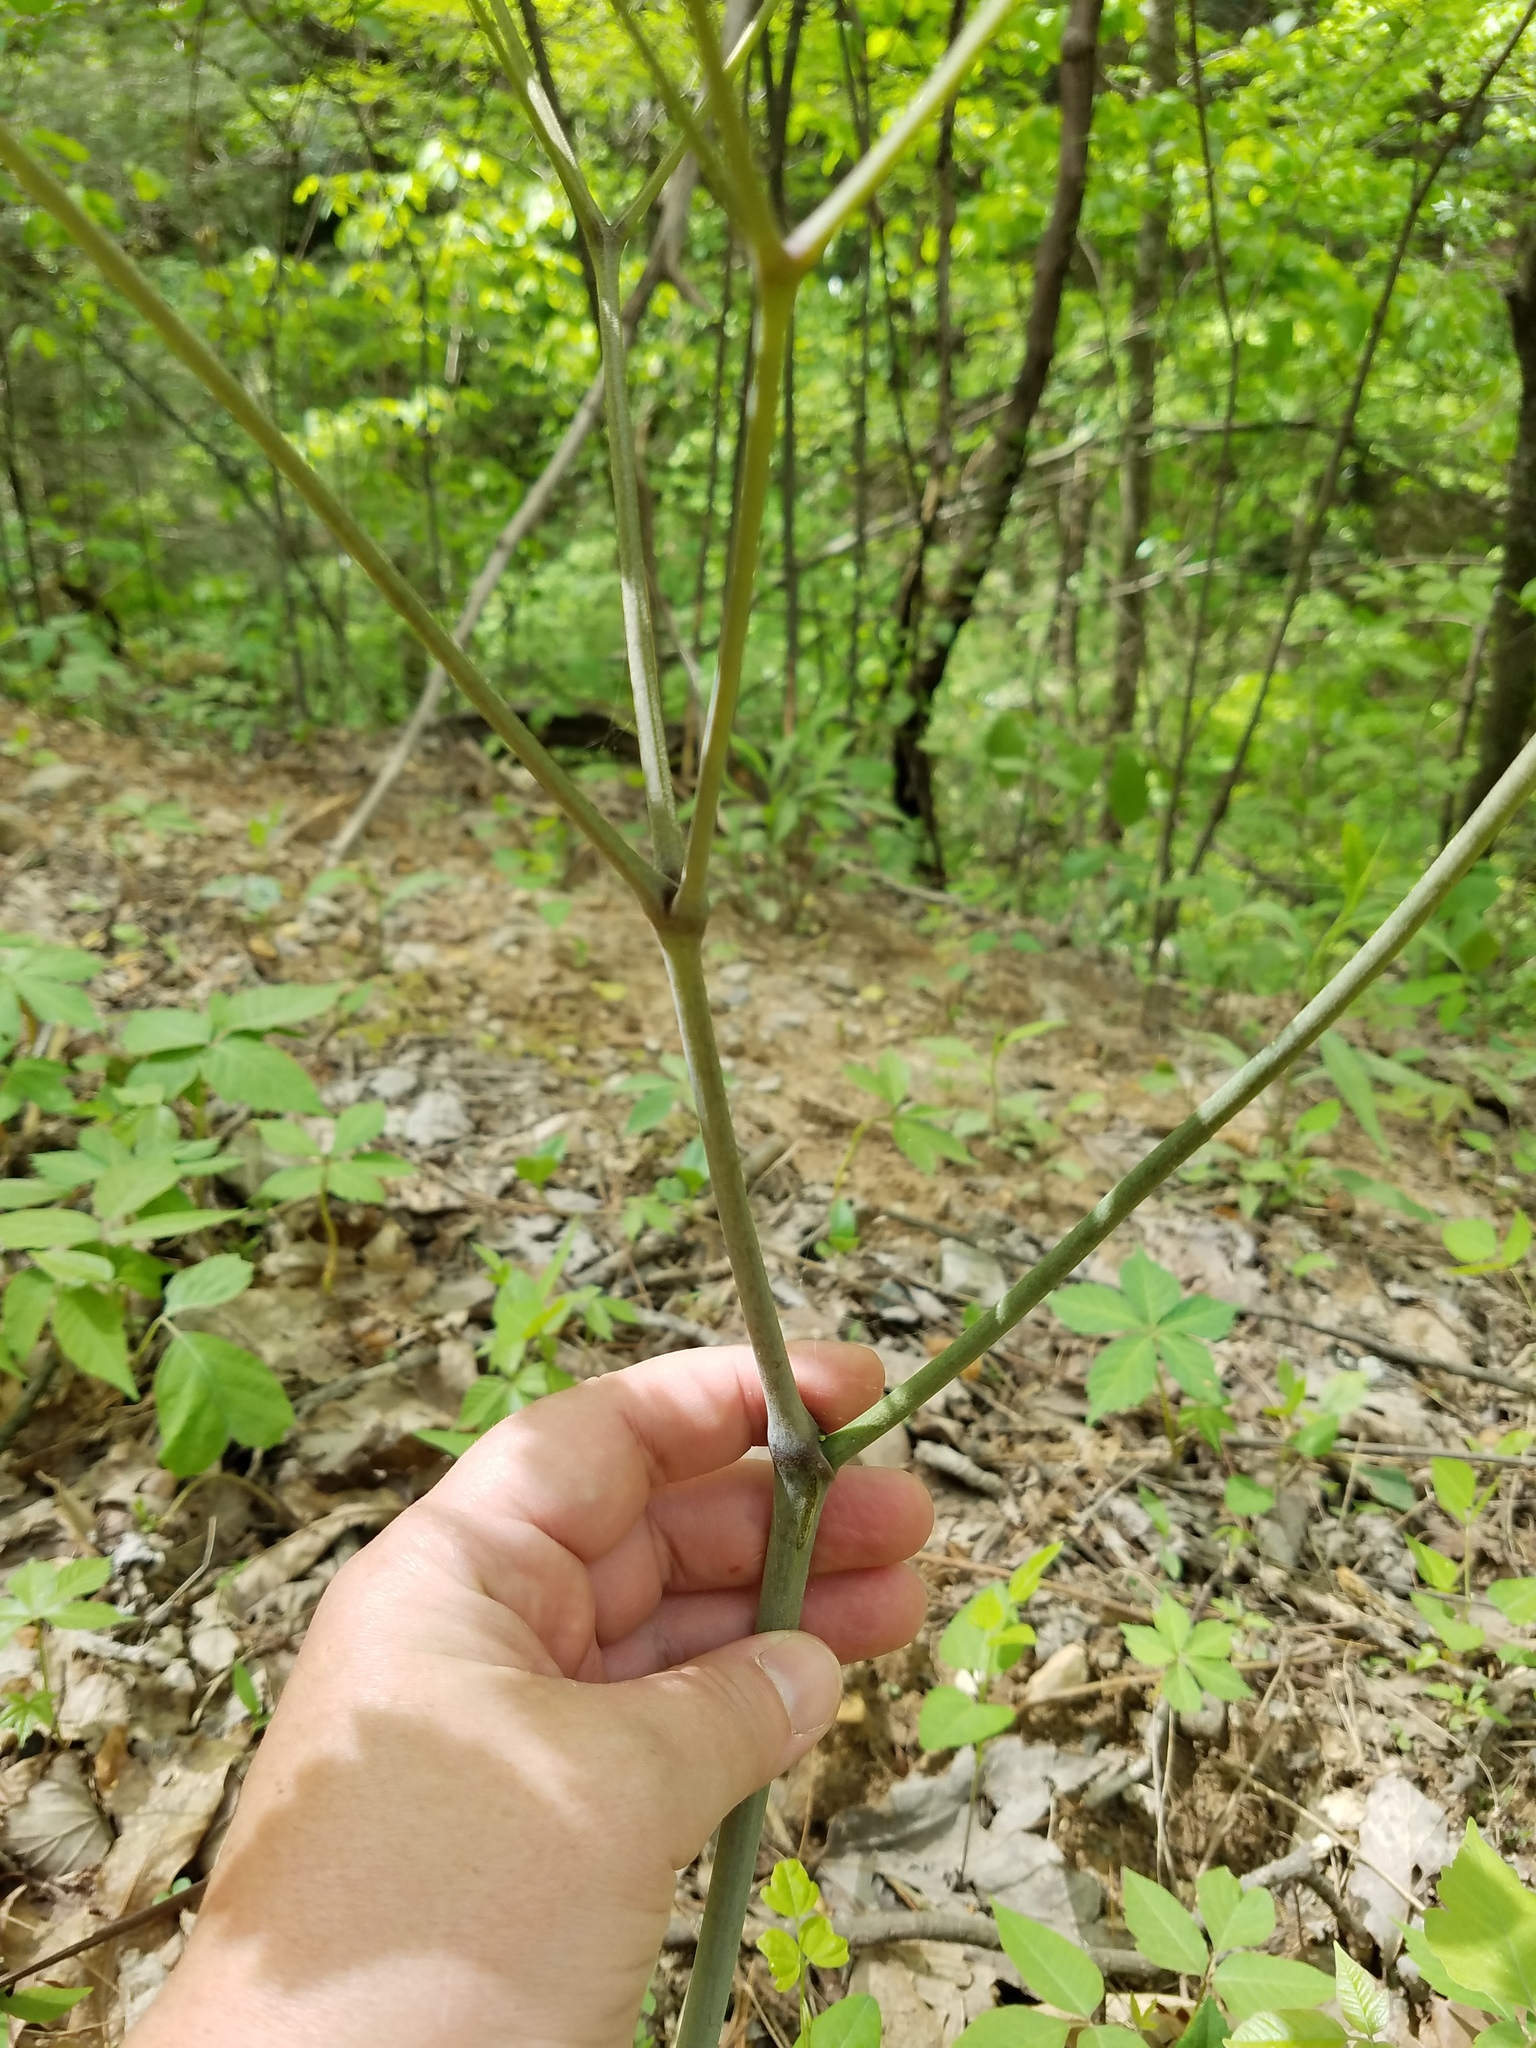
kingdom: Plantae
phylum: Tracheophyta
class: Magnoliopsida
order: Ranunculales
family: Ranunculaceae
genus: Actaea
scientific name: Actaea pachypoda
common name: Doll's-eyes
